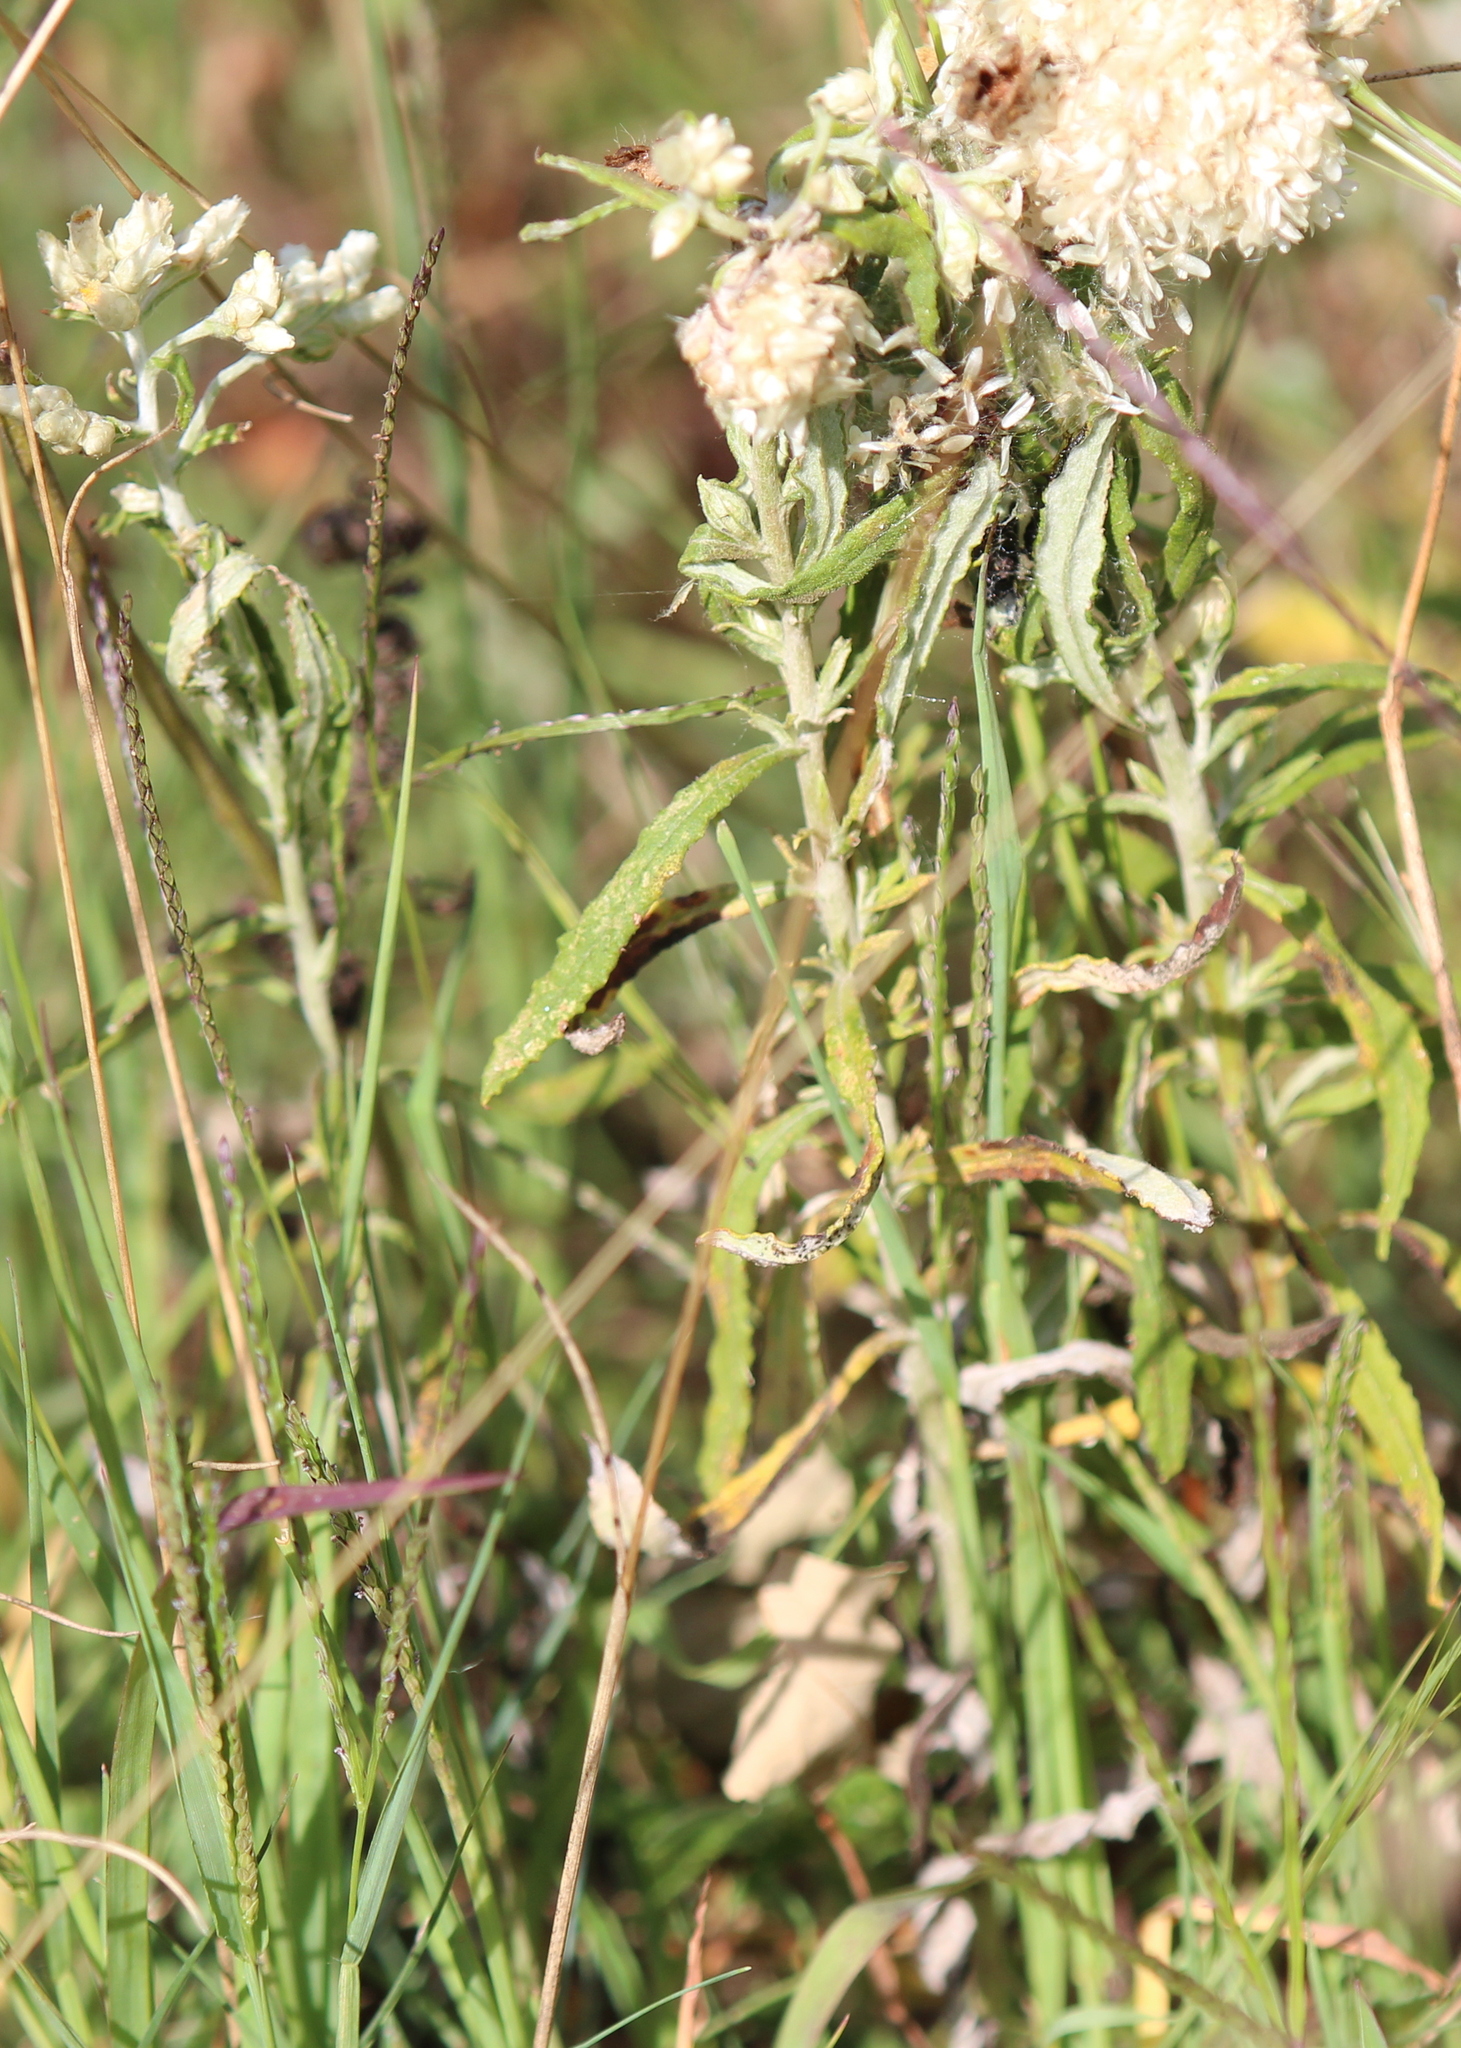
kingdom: Plantae
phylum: Tracheophyta
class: Magnoliopsida
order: Asterales
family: Asteraceae
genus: Pseudognaphalium
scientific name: Pseudognaphalium obtusifolium
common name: Eastern rabbit-tobacco
